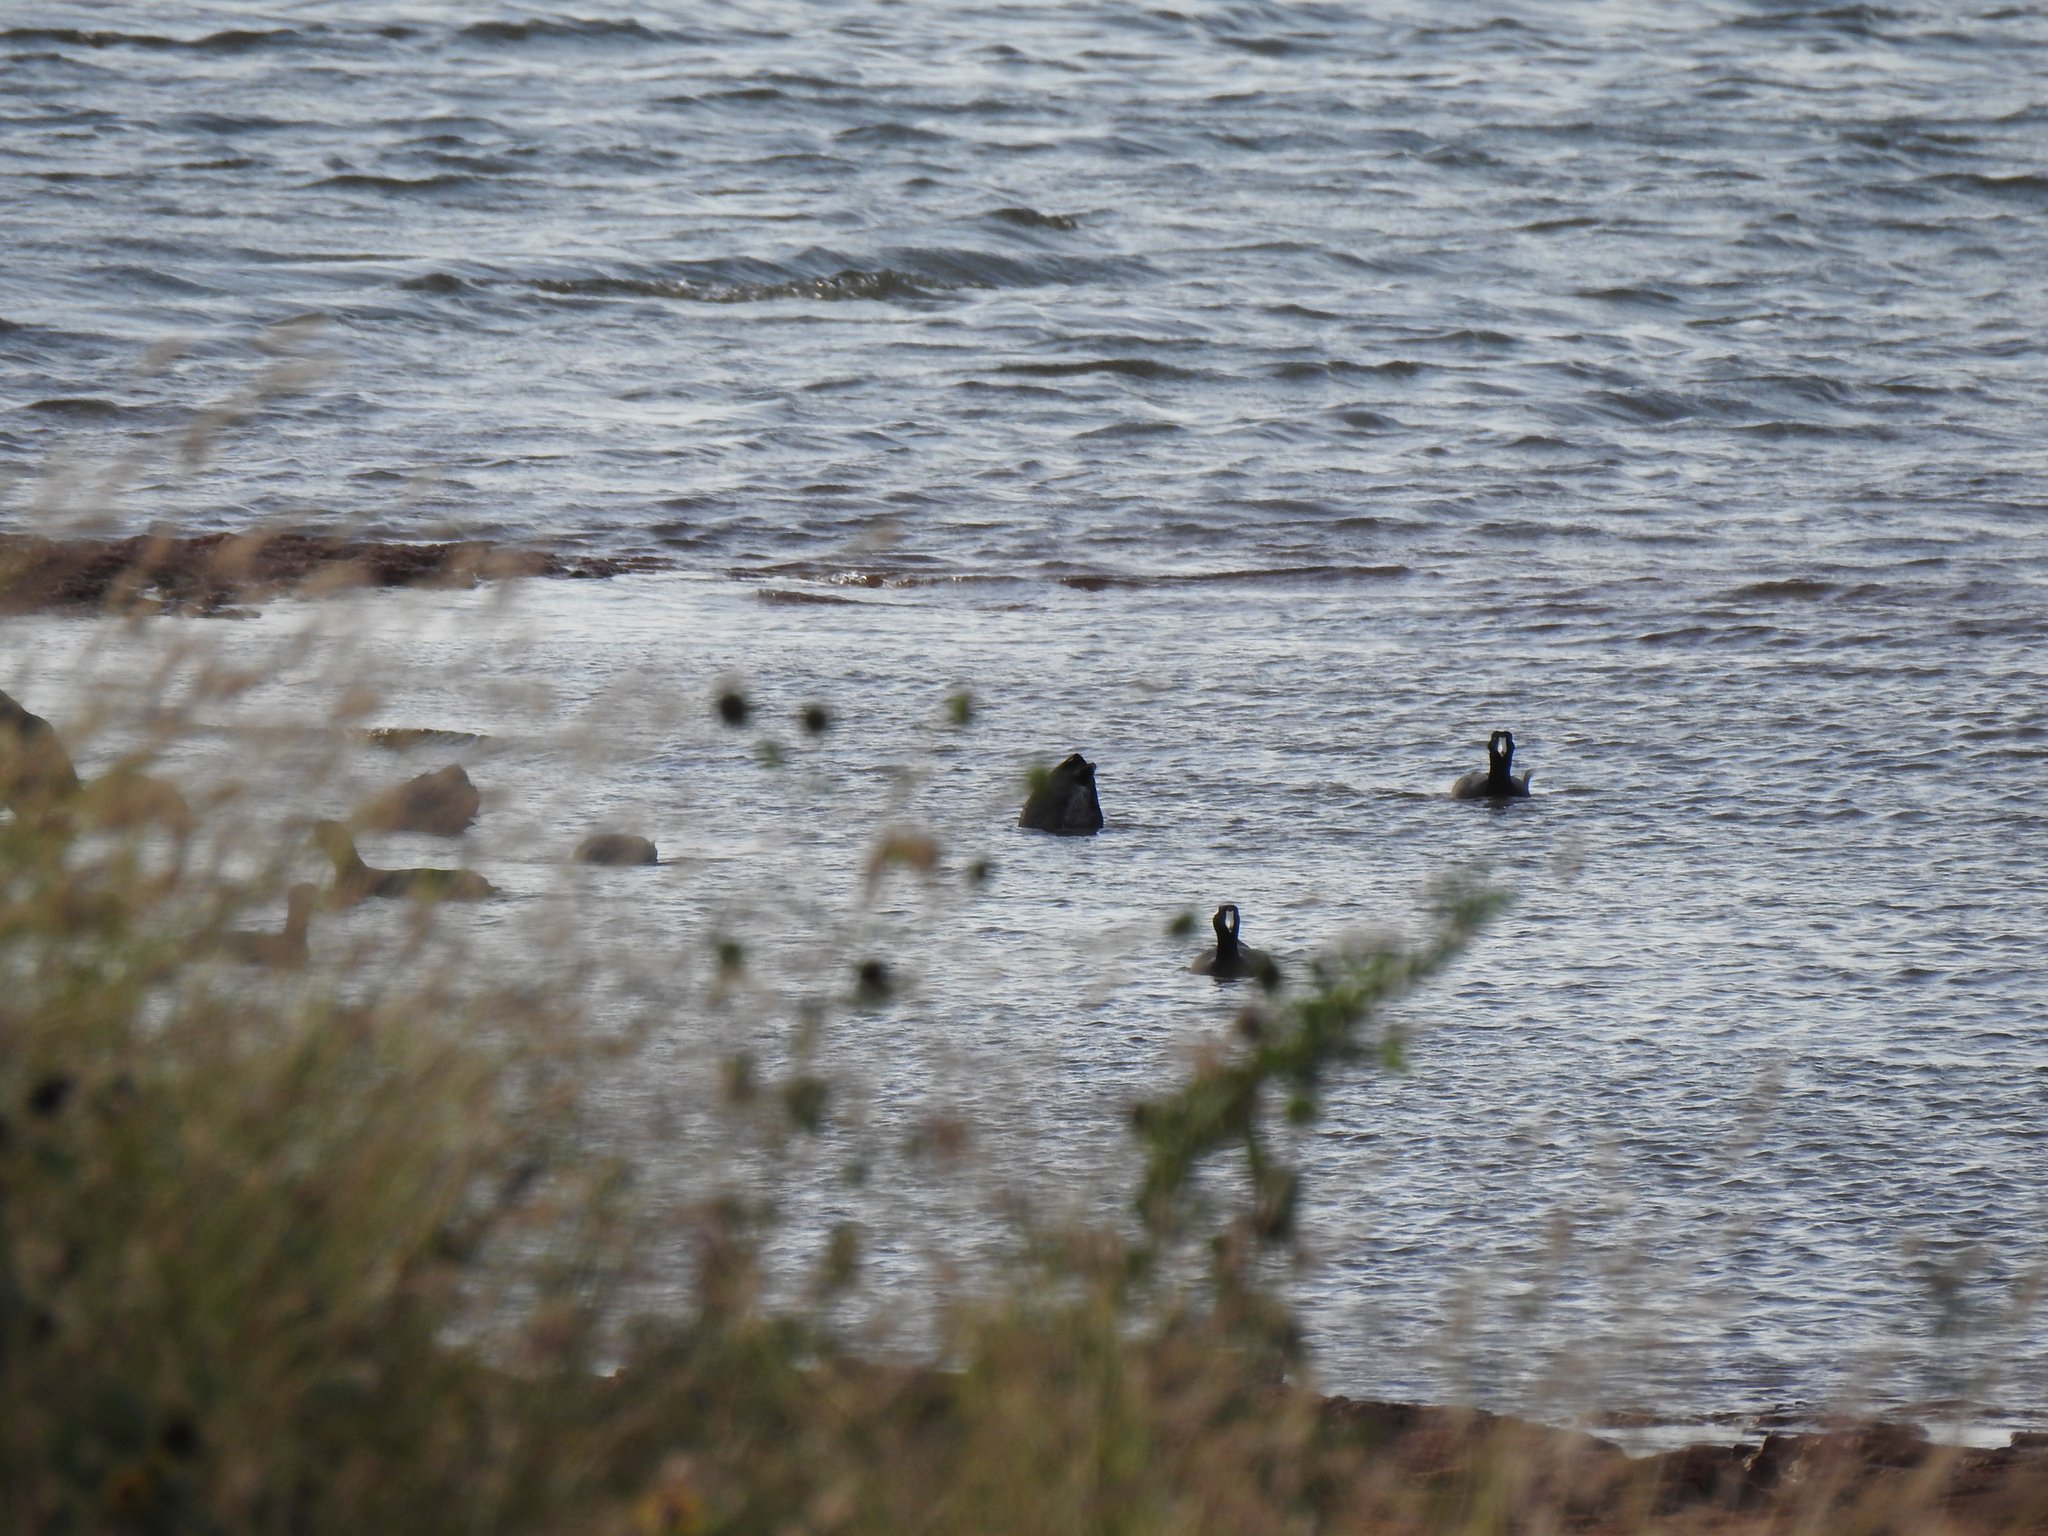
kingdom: Animalia
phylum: Chordata
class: Aves
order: Gruiformes
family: Rallidae
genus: Fulica
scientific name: Fulica americana
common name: American coot
